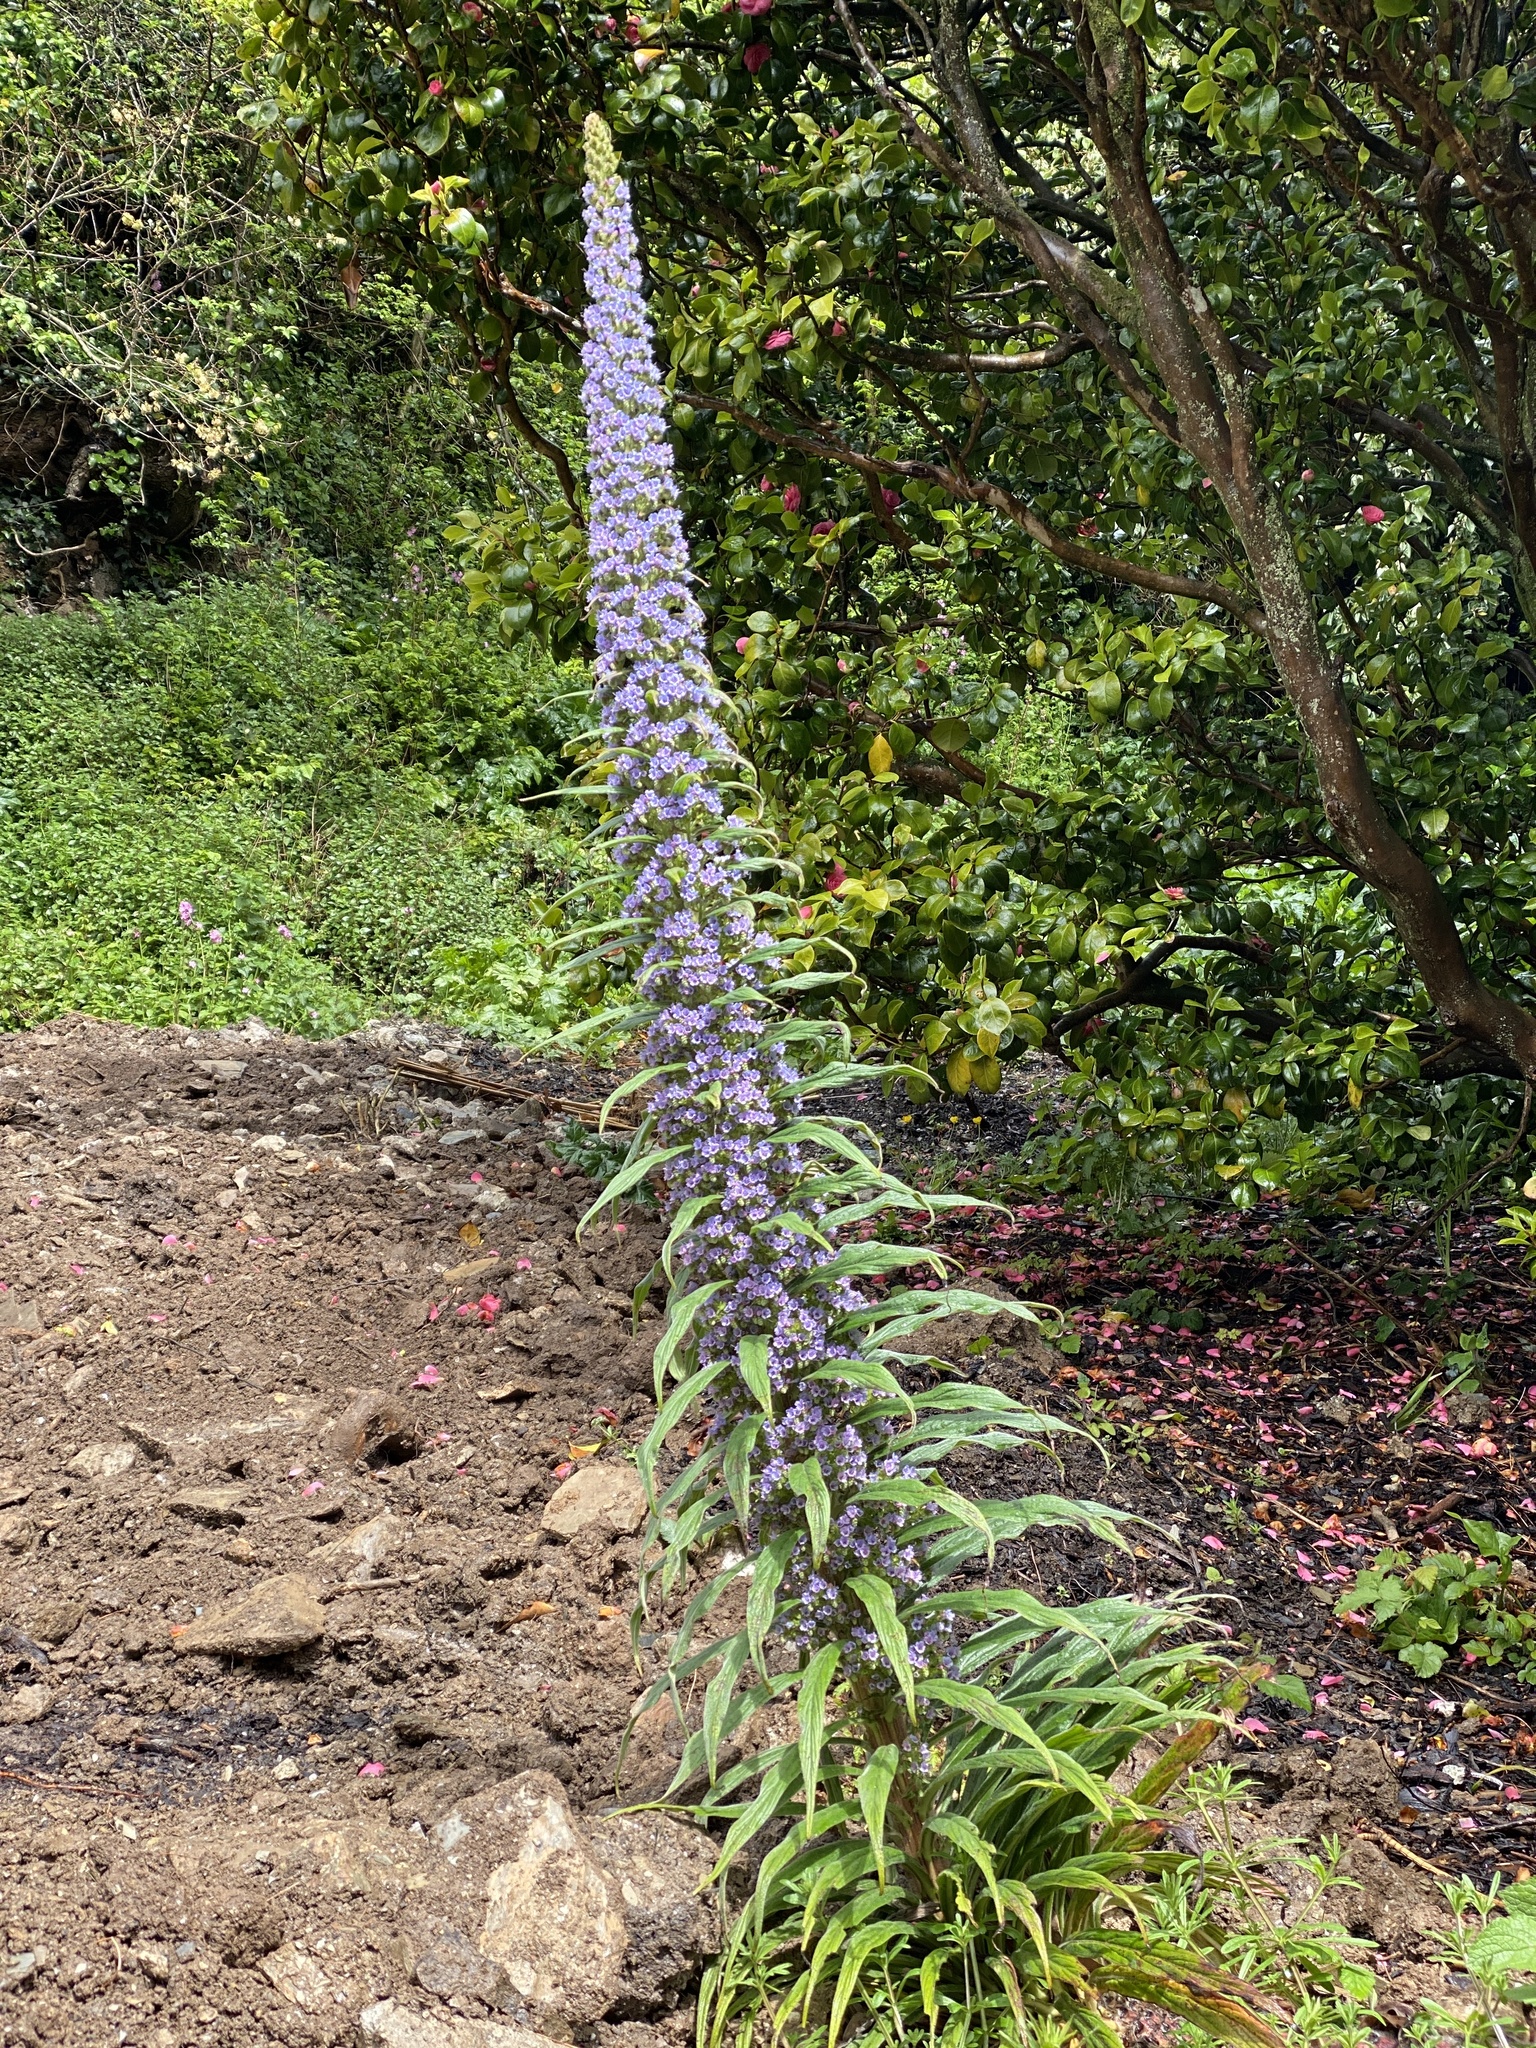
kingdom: Plantae
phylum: Tracheophyta
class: Magnoliopsida
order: Boraginales
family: Boraginaceae
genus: Echium
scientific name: Echium pininana
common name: Giant viper's-bugloss
